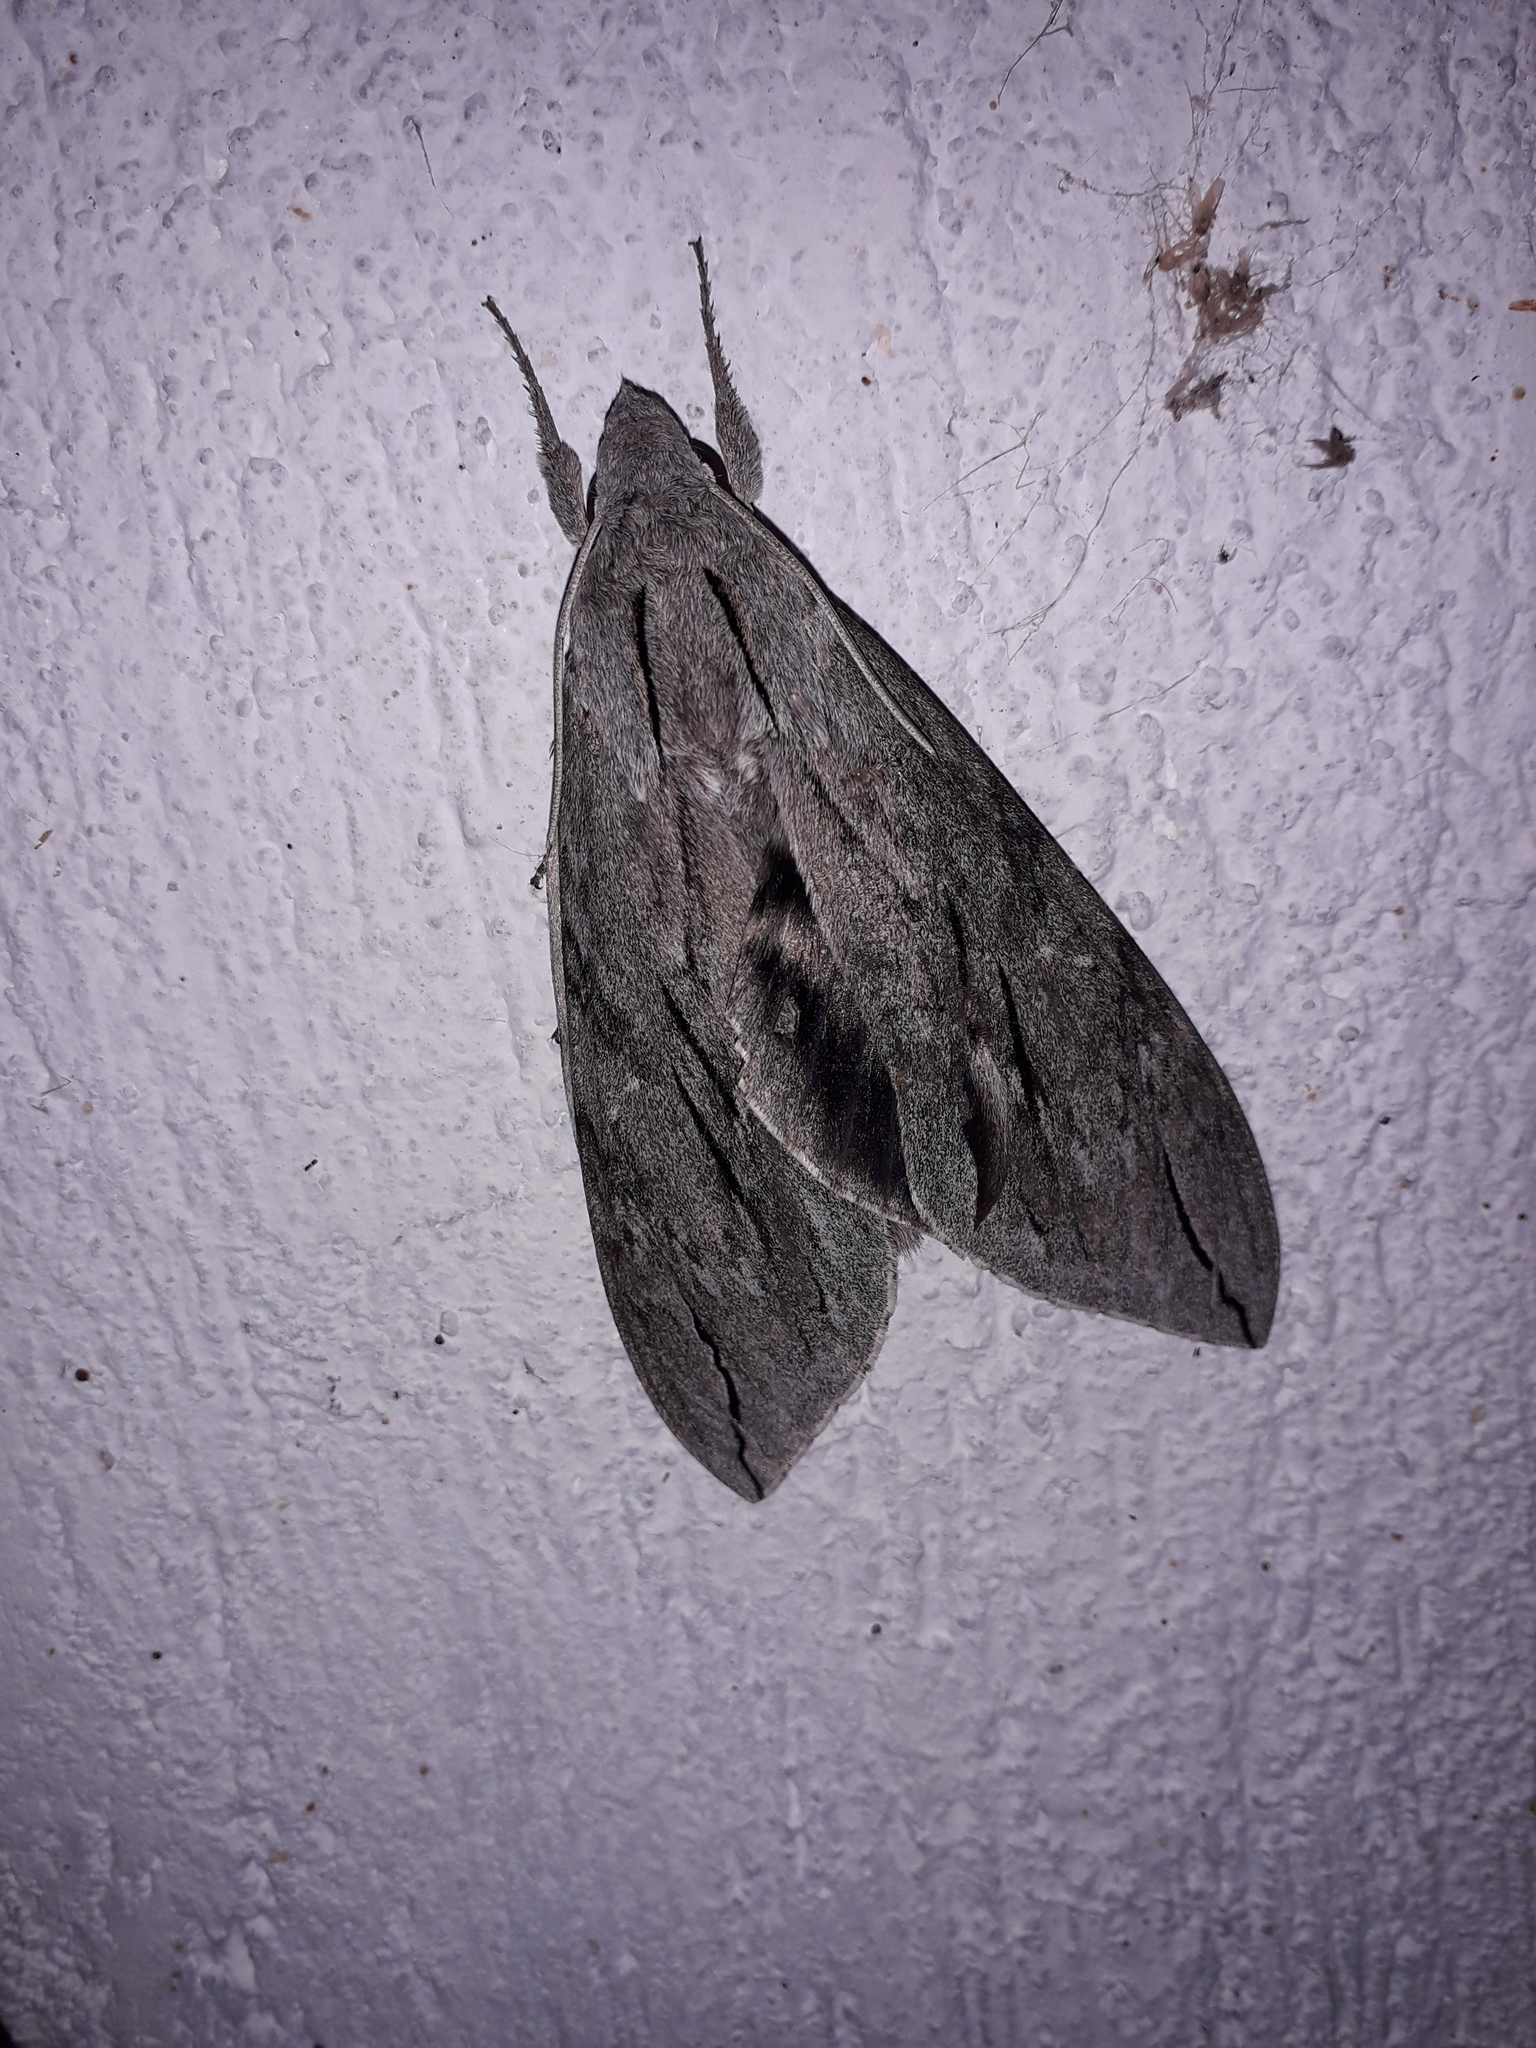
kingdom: Animalia
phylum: Arthropoda
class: Insecta
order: Lepidoptera
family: Sphingidae
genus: Sphinx
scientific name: Sphinx leucophaeata
